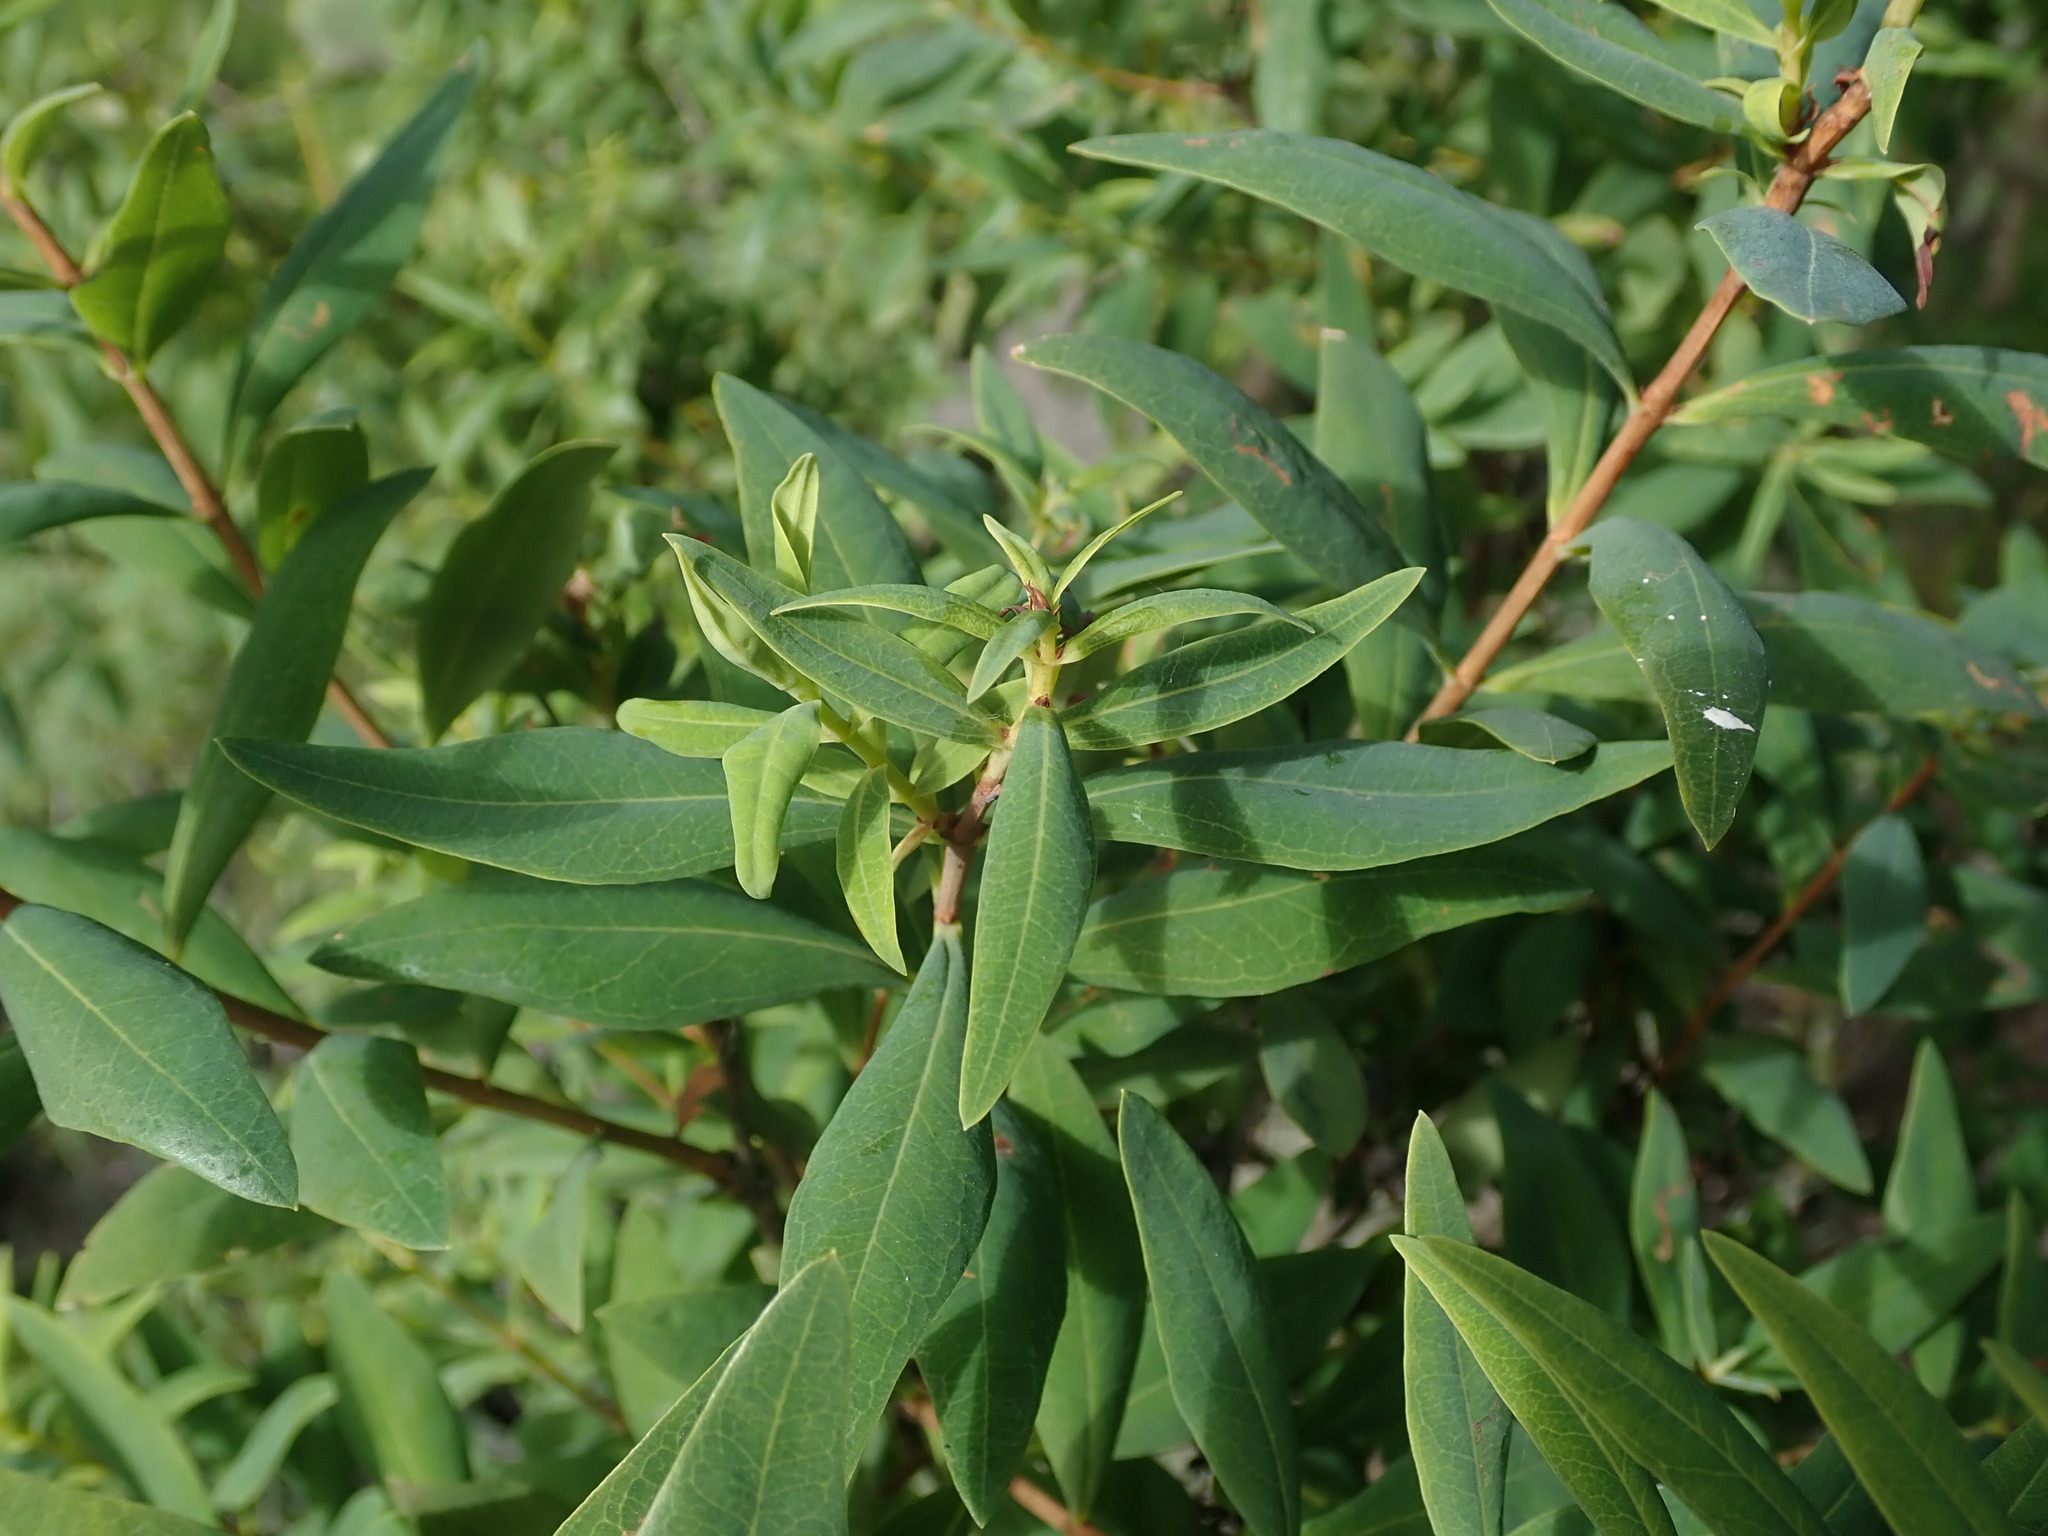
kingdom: Plantae
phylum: Tracheophyta
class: Magnoliopsida
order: Malpighiales
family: Hypericaceae
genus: Hypericum
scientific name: Hypericum canariense
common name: Canary island st. johnswort
